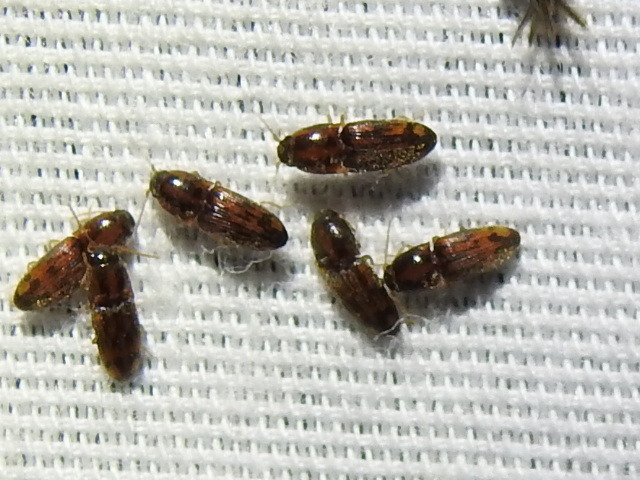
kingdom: Animalia
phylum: Arthropoda
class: Insecta
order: Coleoptera
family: Elateridae
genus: Monocrepidius
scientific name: Monocrepidius bellus
